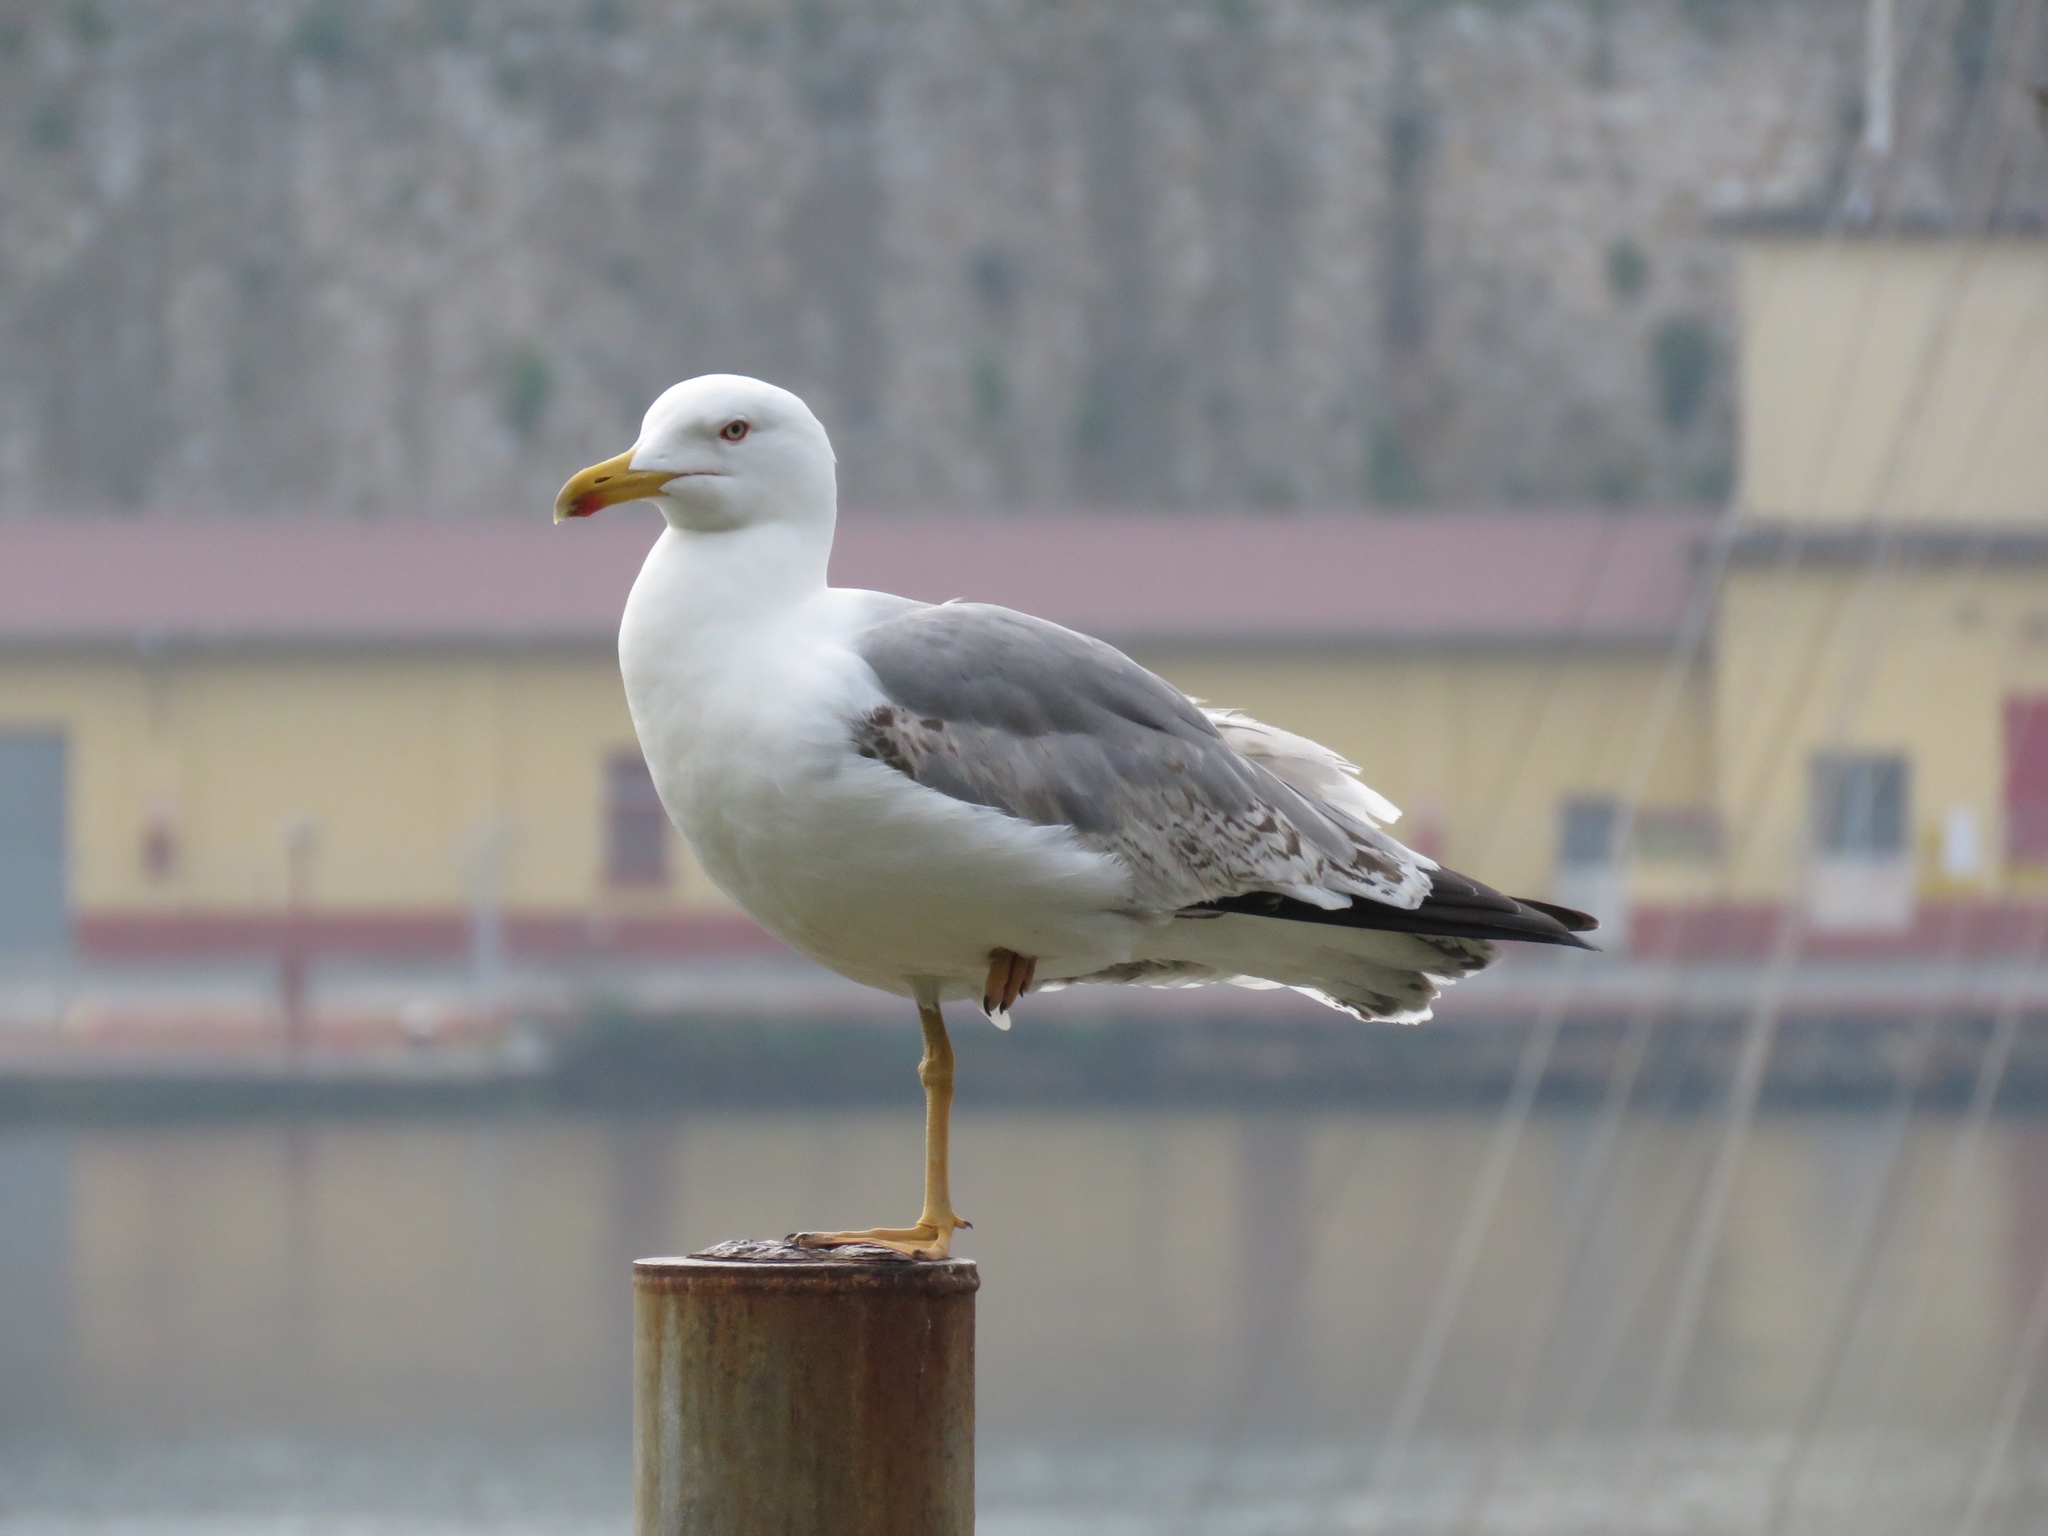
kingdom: Animalia
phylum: Chordata
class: Aves
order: Charadriiformes
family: Laridae
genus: Larus
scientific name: Larus michahellis
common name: Yellow-legged gull
